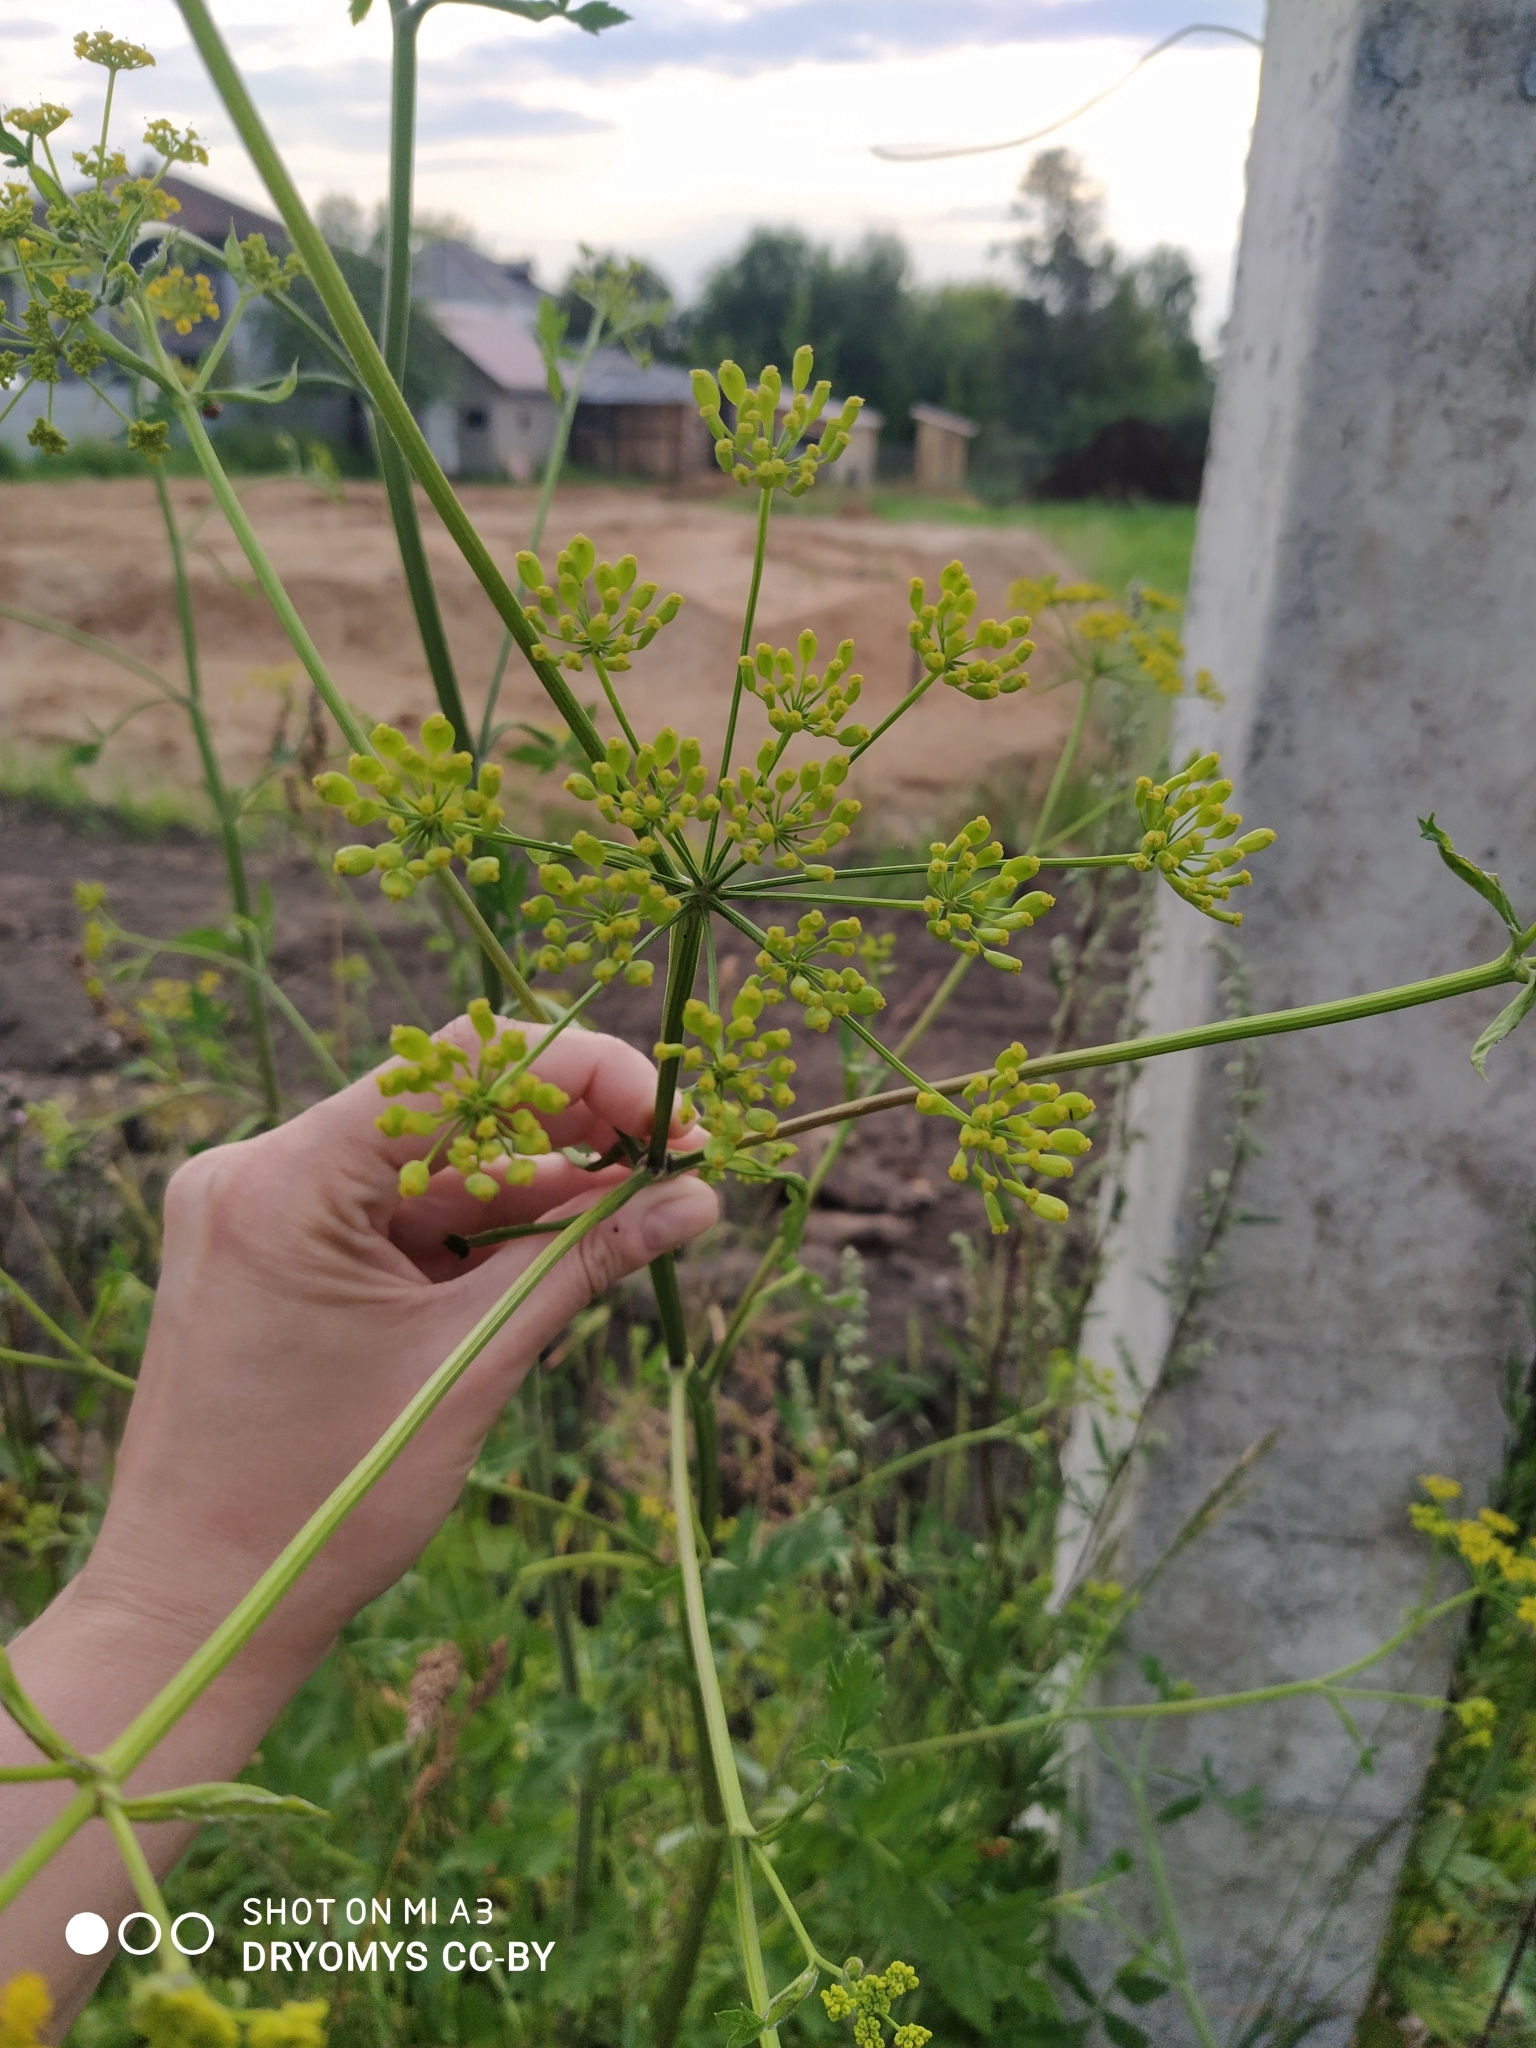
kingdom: Plantae
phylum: Tracheophyta
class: Magnoliopsida
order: Apiales
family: Apiaceae
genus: Pastinaca
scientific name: Pastinaca sativa
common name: Wild parsnip
